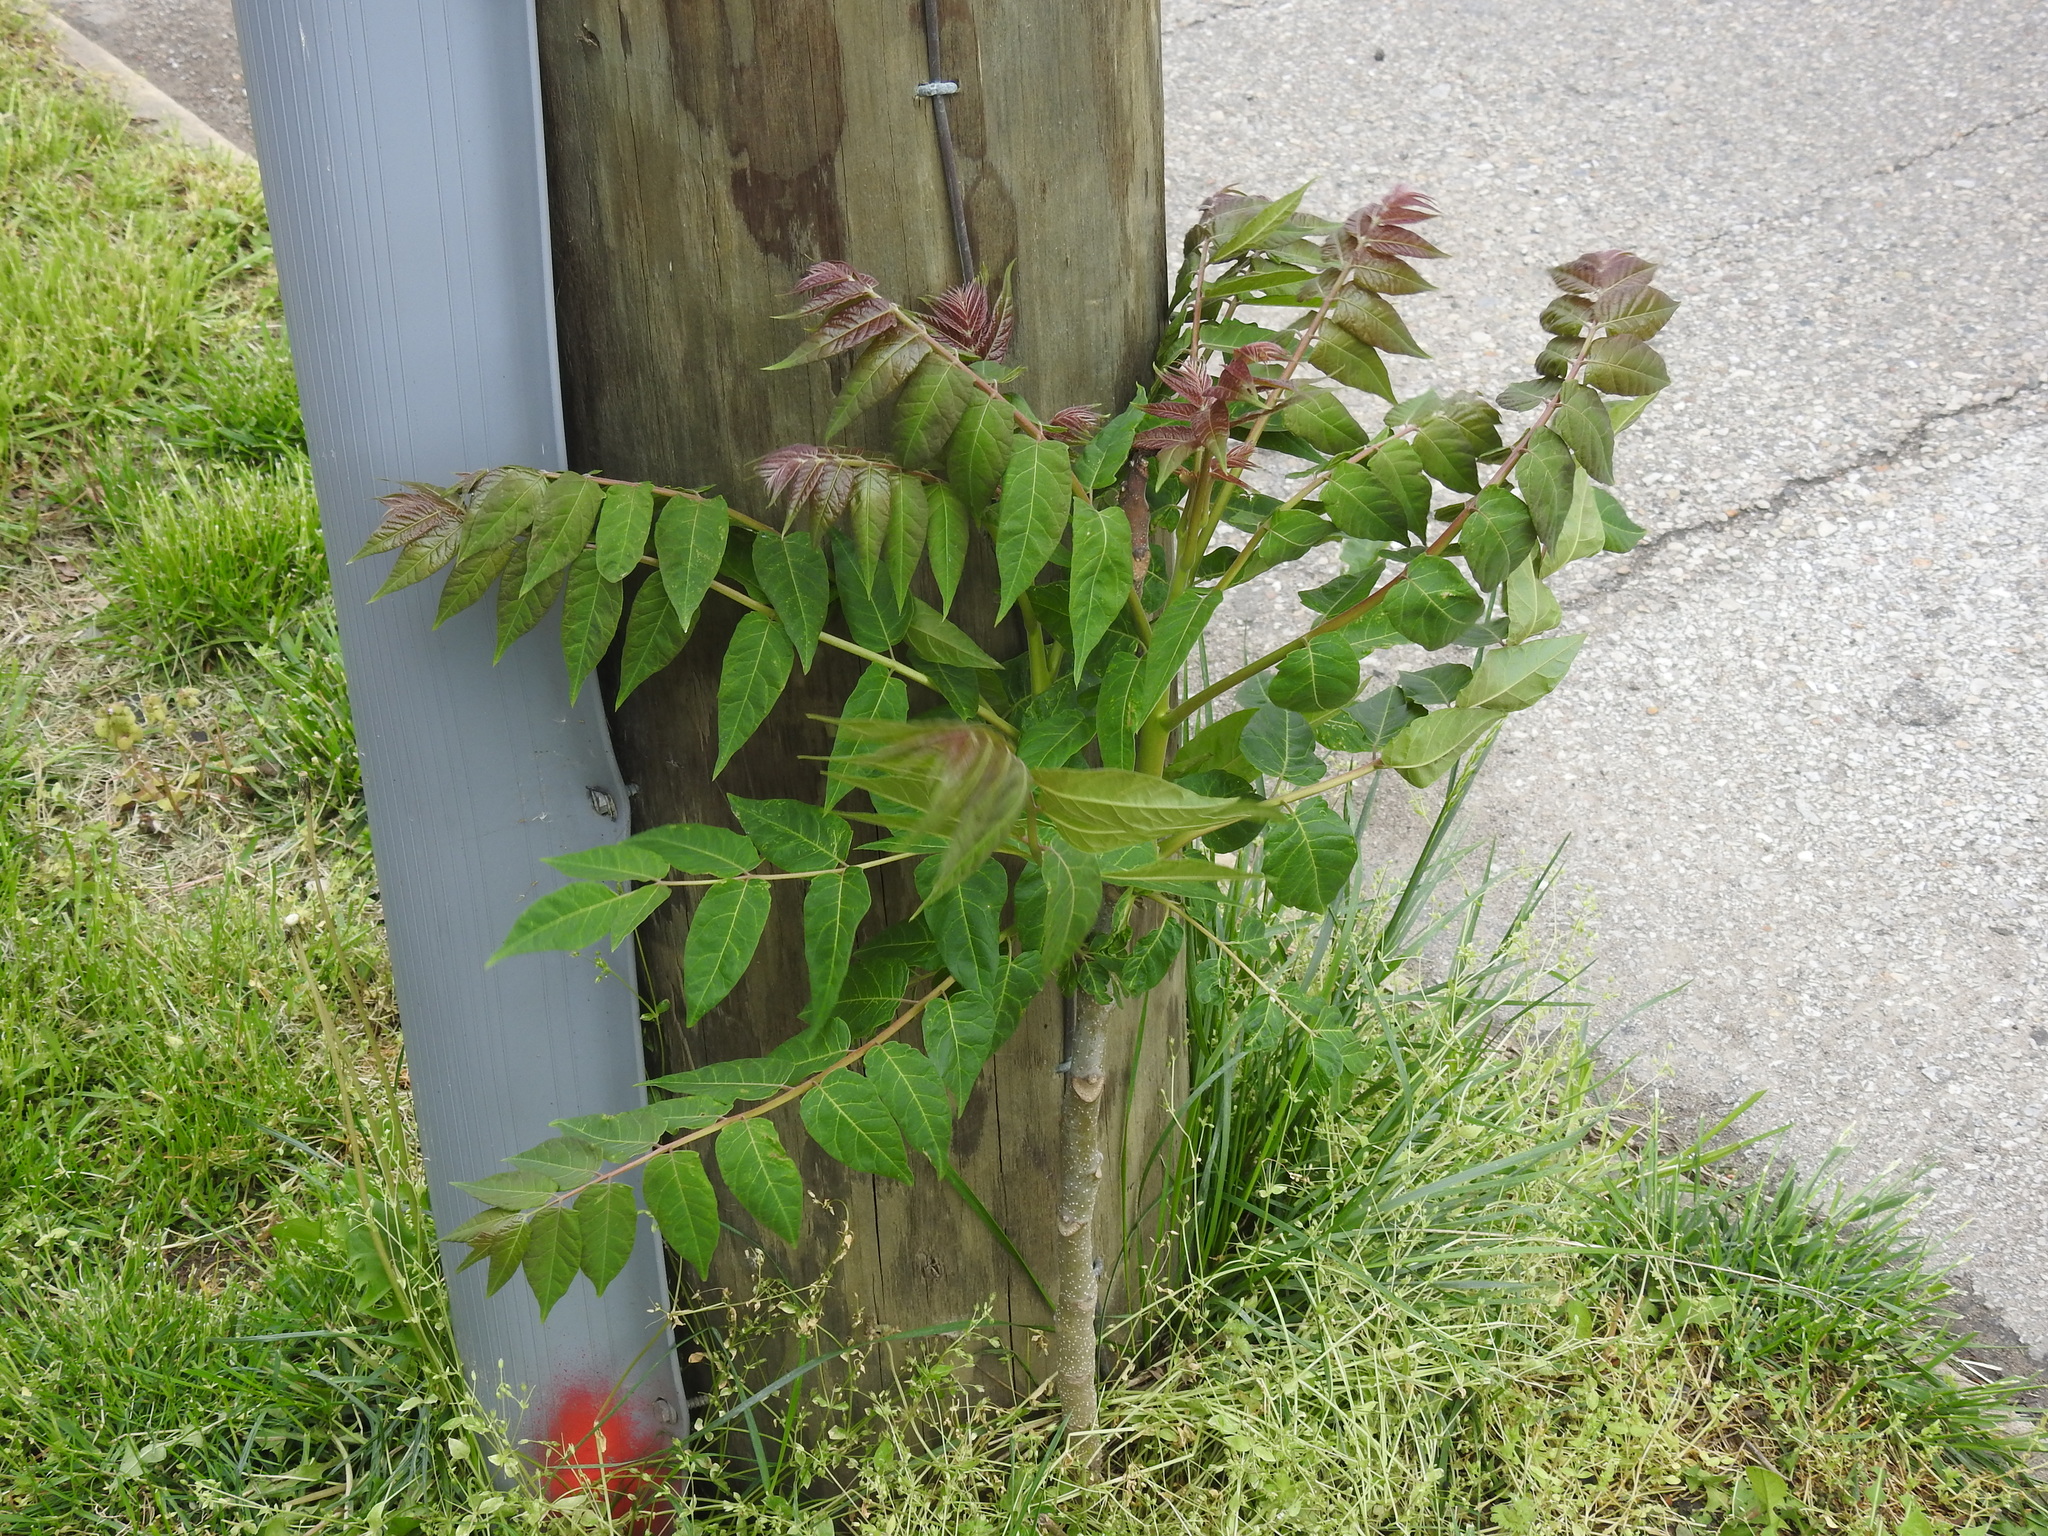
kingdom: Plantae
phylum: Tracheophyta
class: Magnoliopsida
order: Sapindales
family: Simaroubaceae
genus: Ailanthus
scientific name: Ailanthus altissima
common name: Tree-of-heaven
